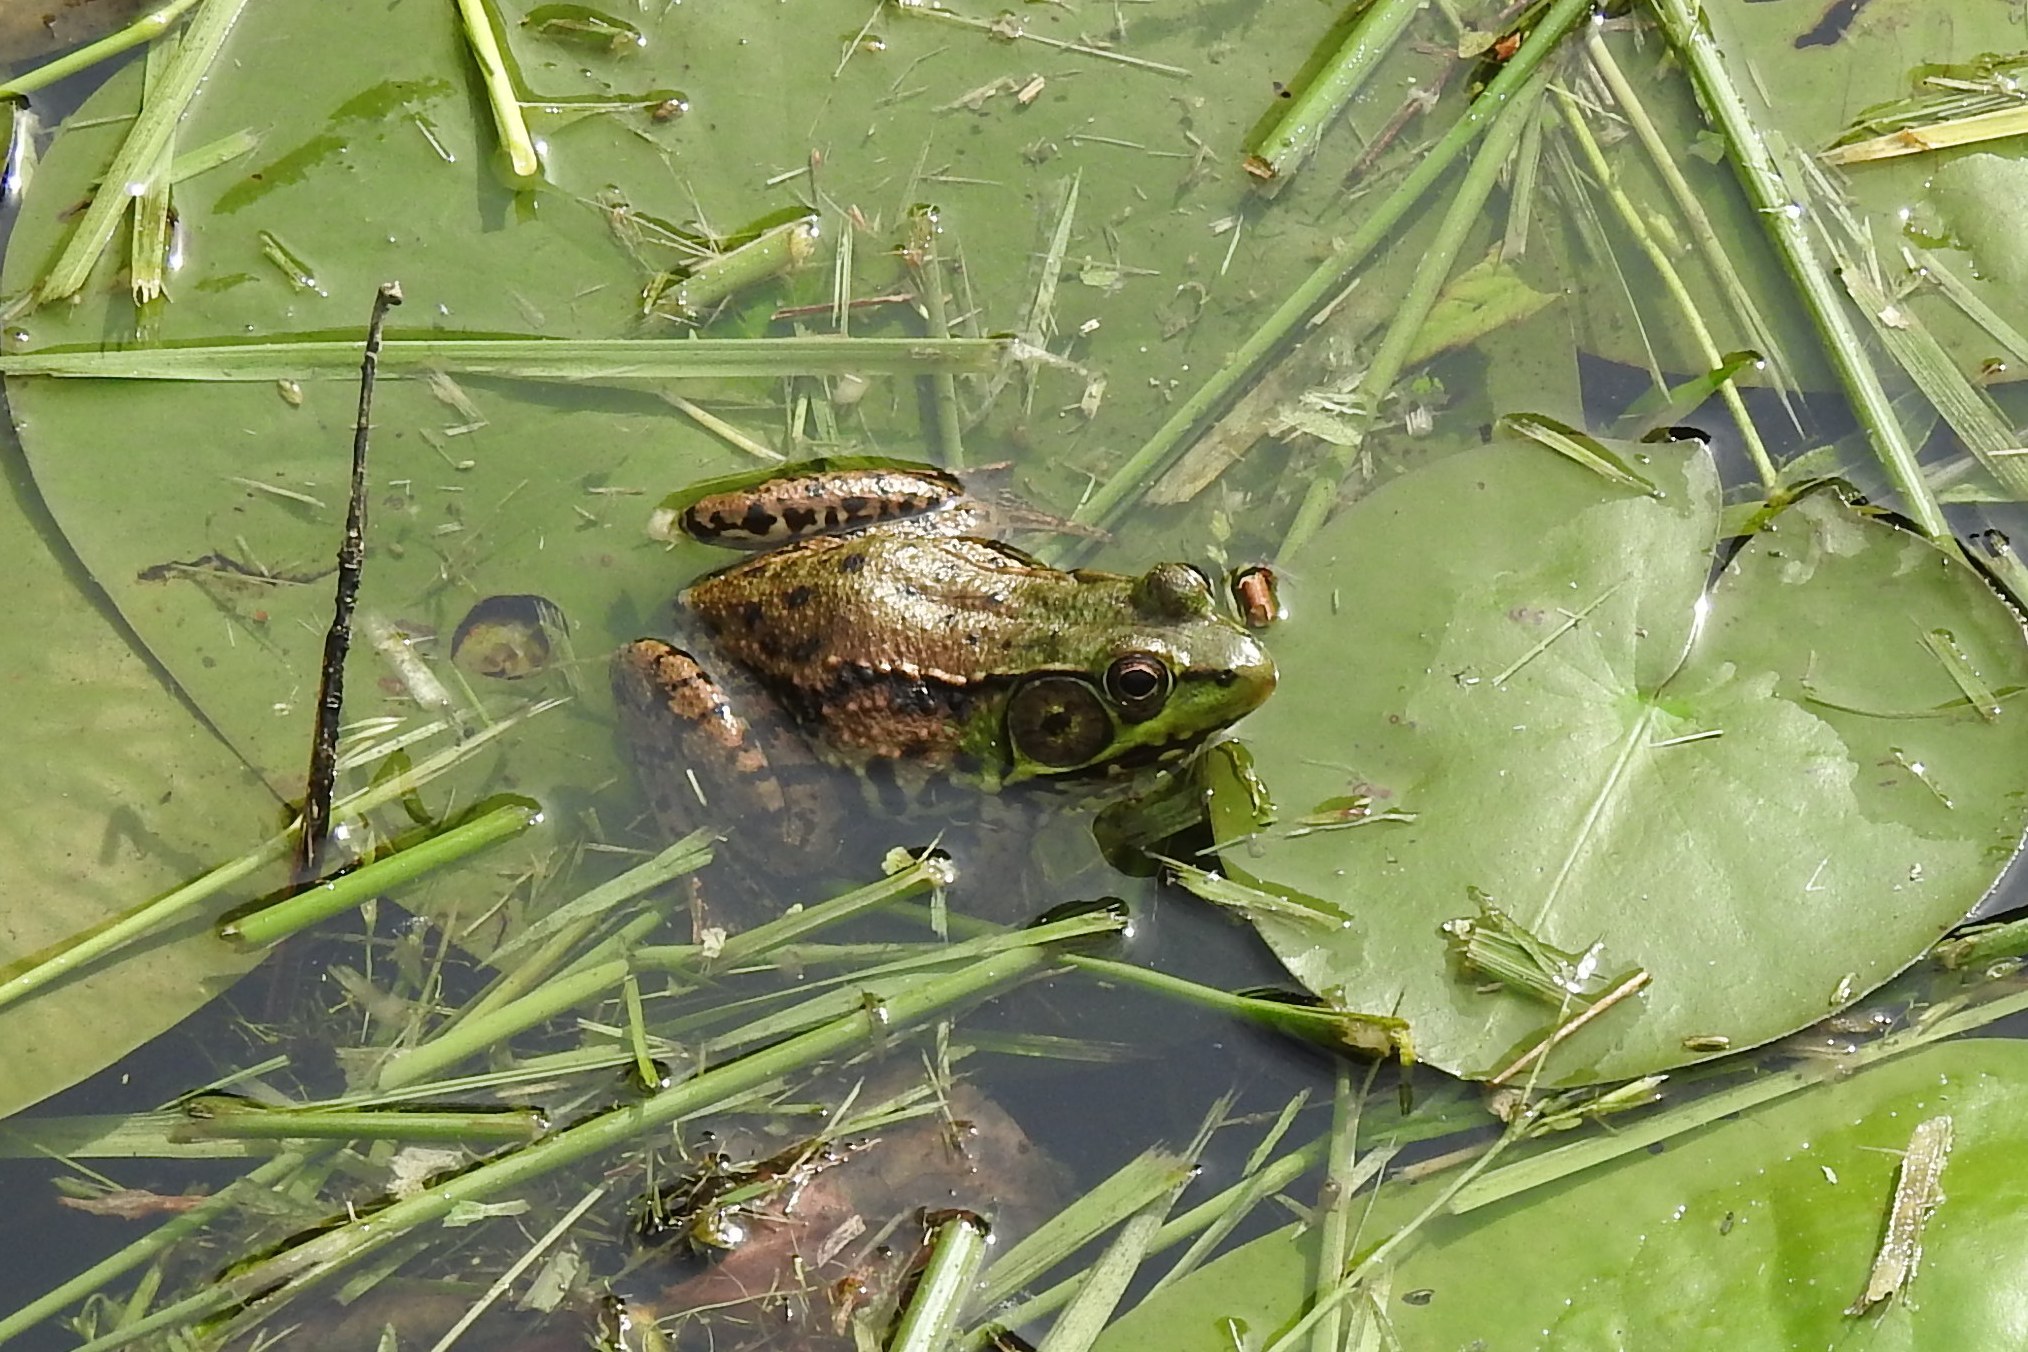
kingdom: Animalia
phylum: Chordata
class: Amphibia
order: Anura
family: Ranidae
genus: Lithobates
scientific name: Lithobates clamitans
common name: Green frog
